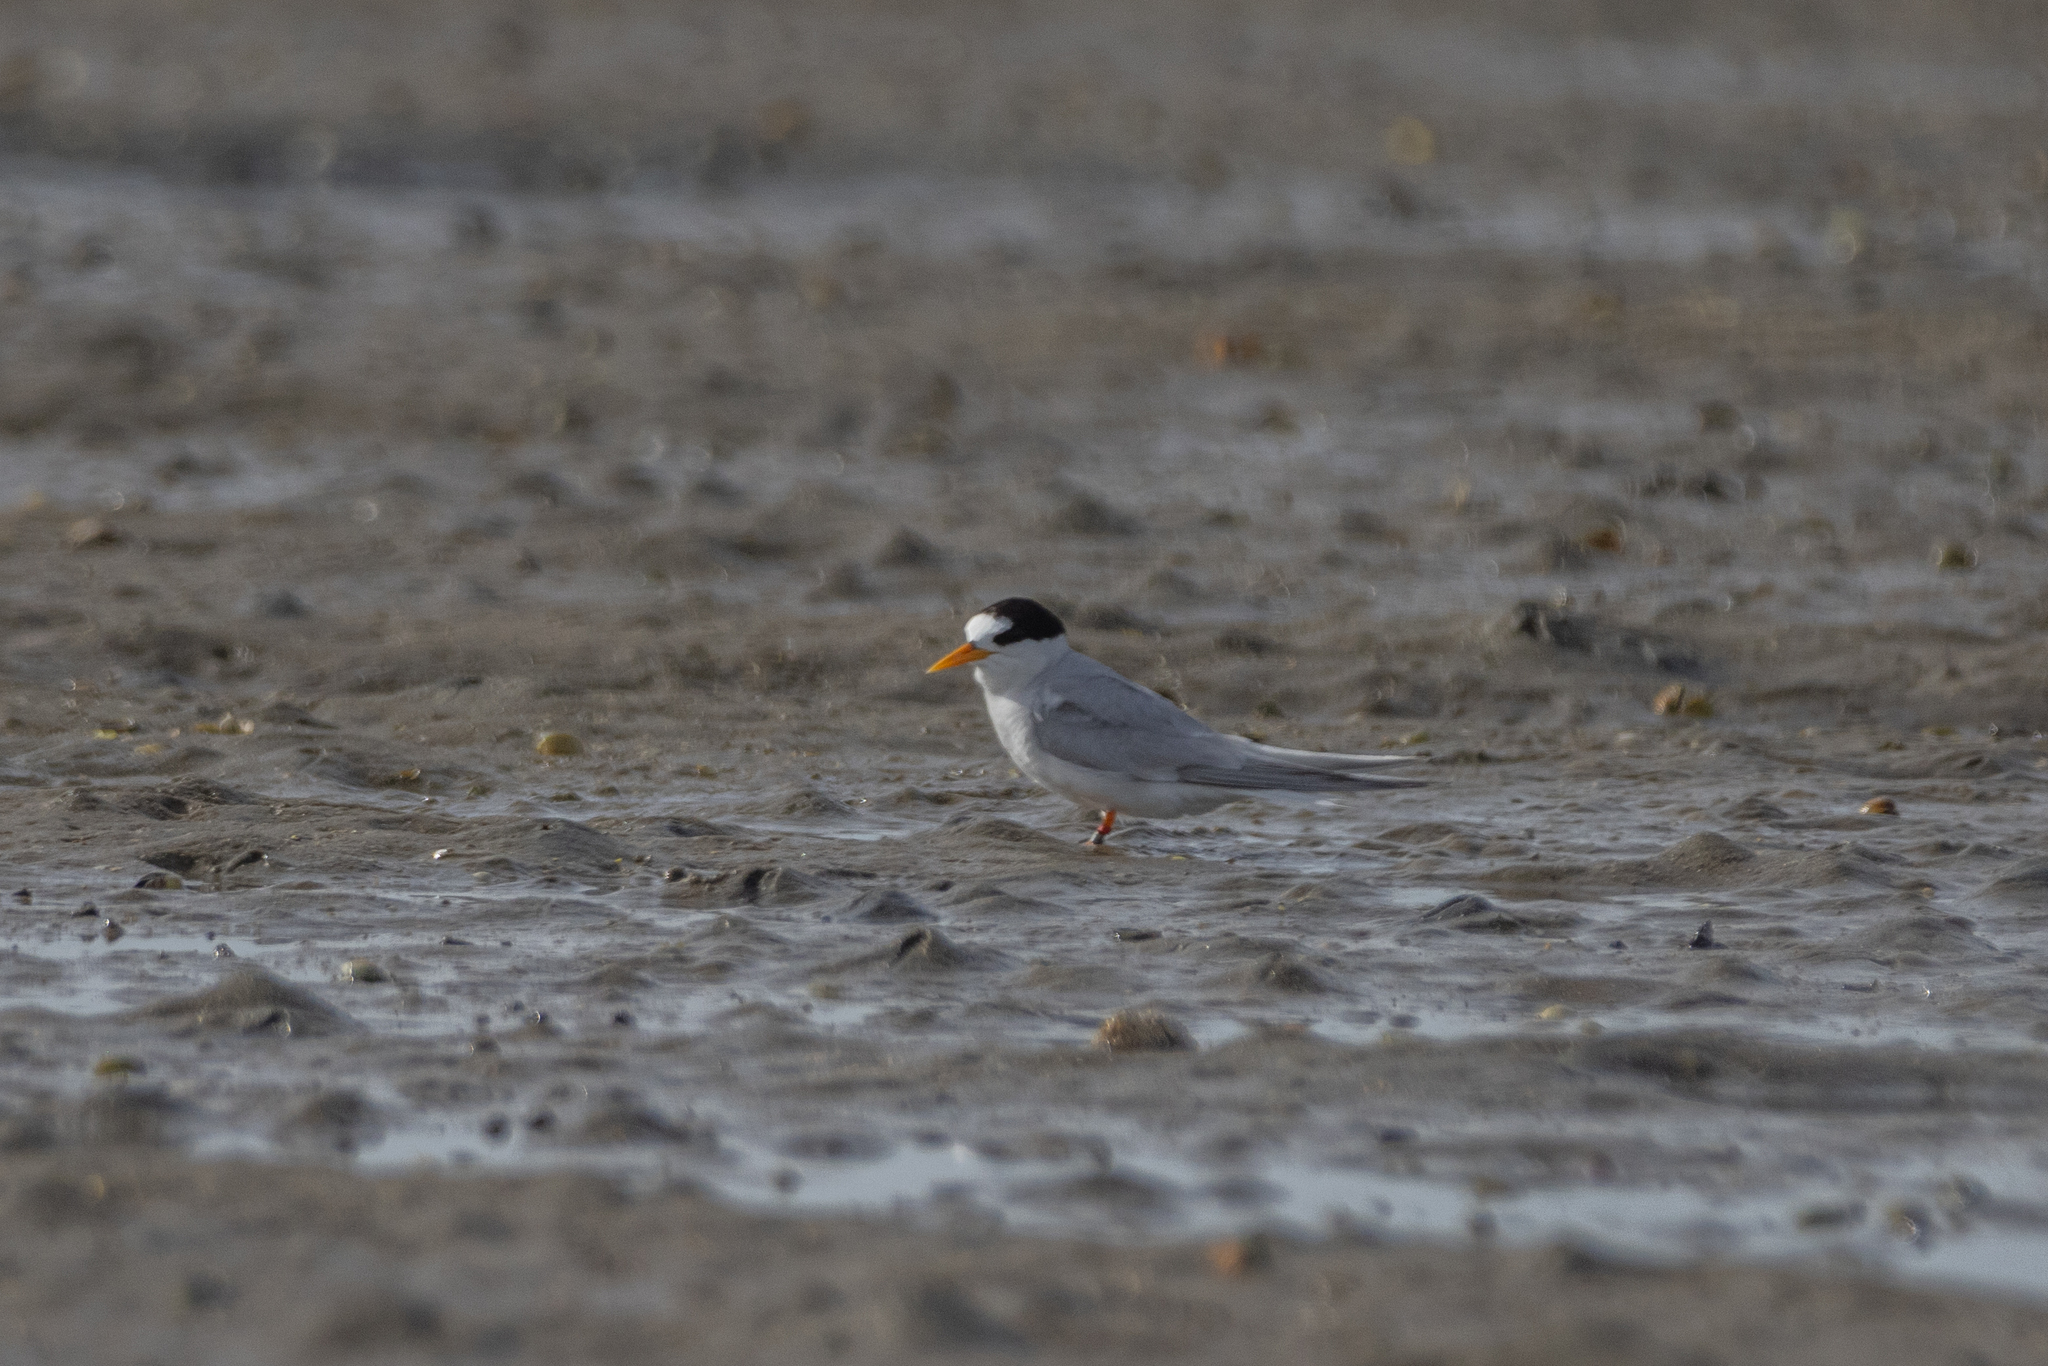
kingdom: Animalia
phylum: Chordata
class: Aves
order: Charadriiformes
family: Laridae
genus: Sternula
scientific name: Sternula nereis
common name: Fairy tern
